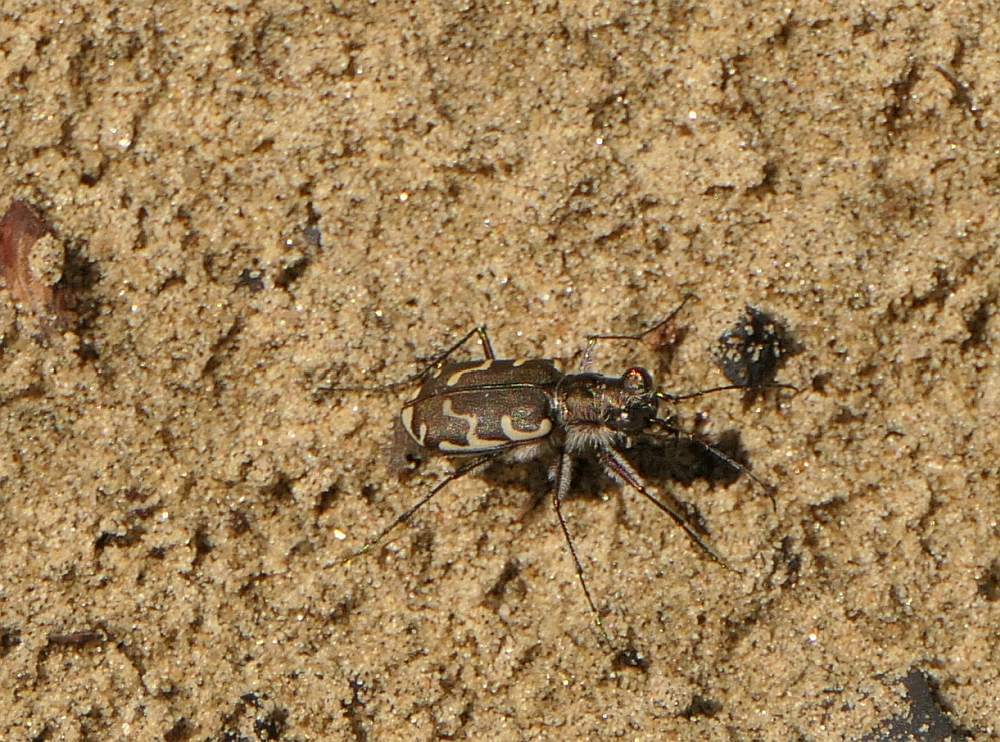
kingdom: Animalia
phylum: Arthropoda
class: Insecta
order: Coleoptera
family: Carabidae
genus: Cicindela
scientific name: Cicindela repanda
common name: Bronzed tiger beetle
